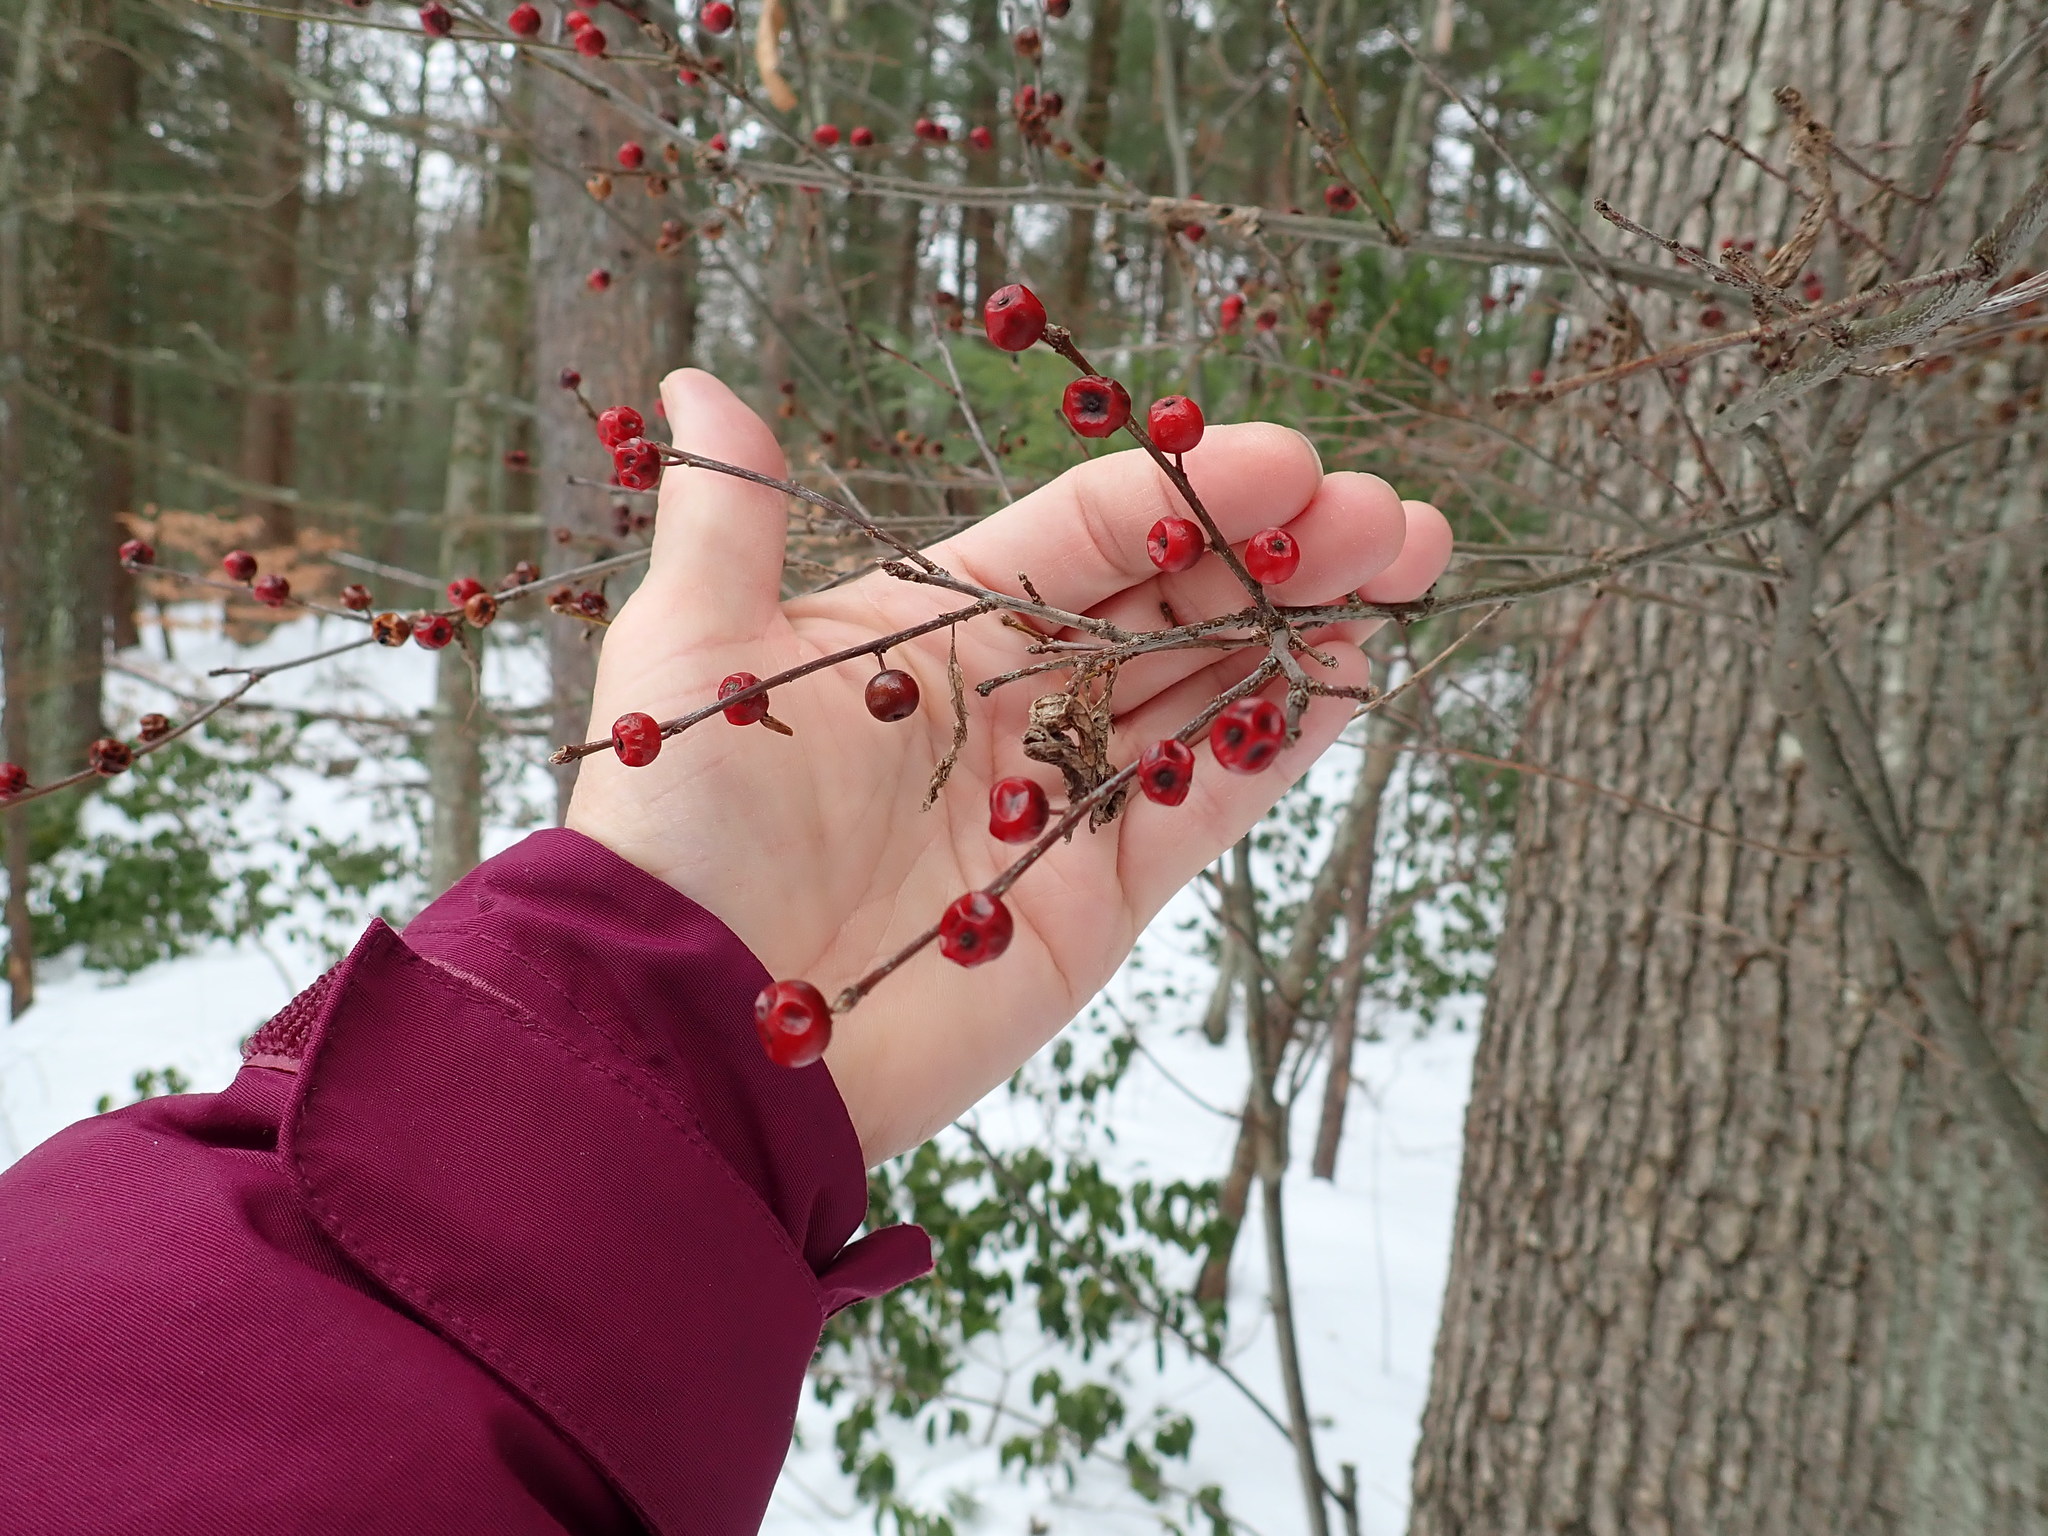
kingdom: Plantae
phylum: Tracheophyta
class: Magnoliopsida
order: Aquifoliales
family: Aquifoliaceae
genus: Ilex
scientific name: Ilex verticillata
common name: Virginia winterberry
